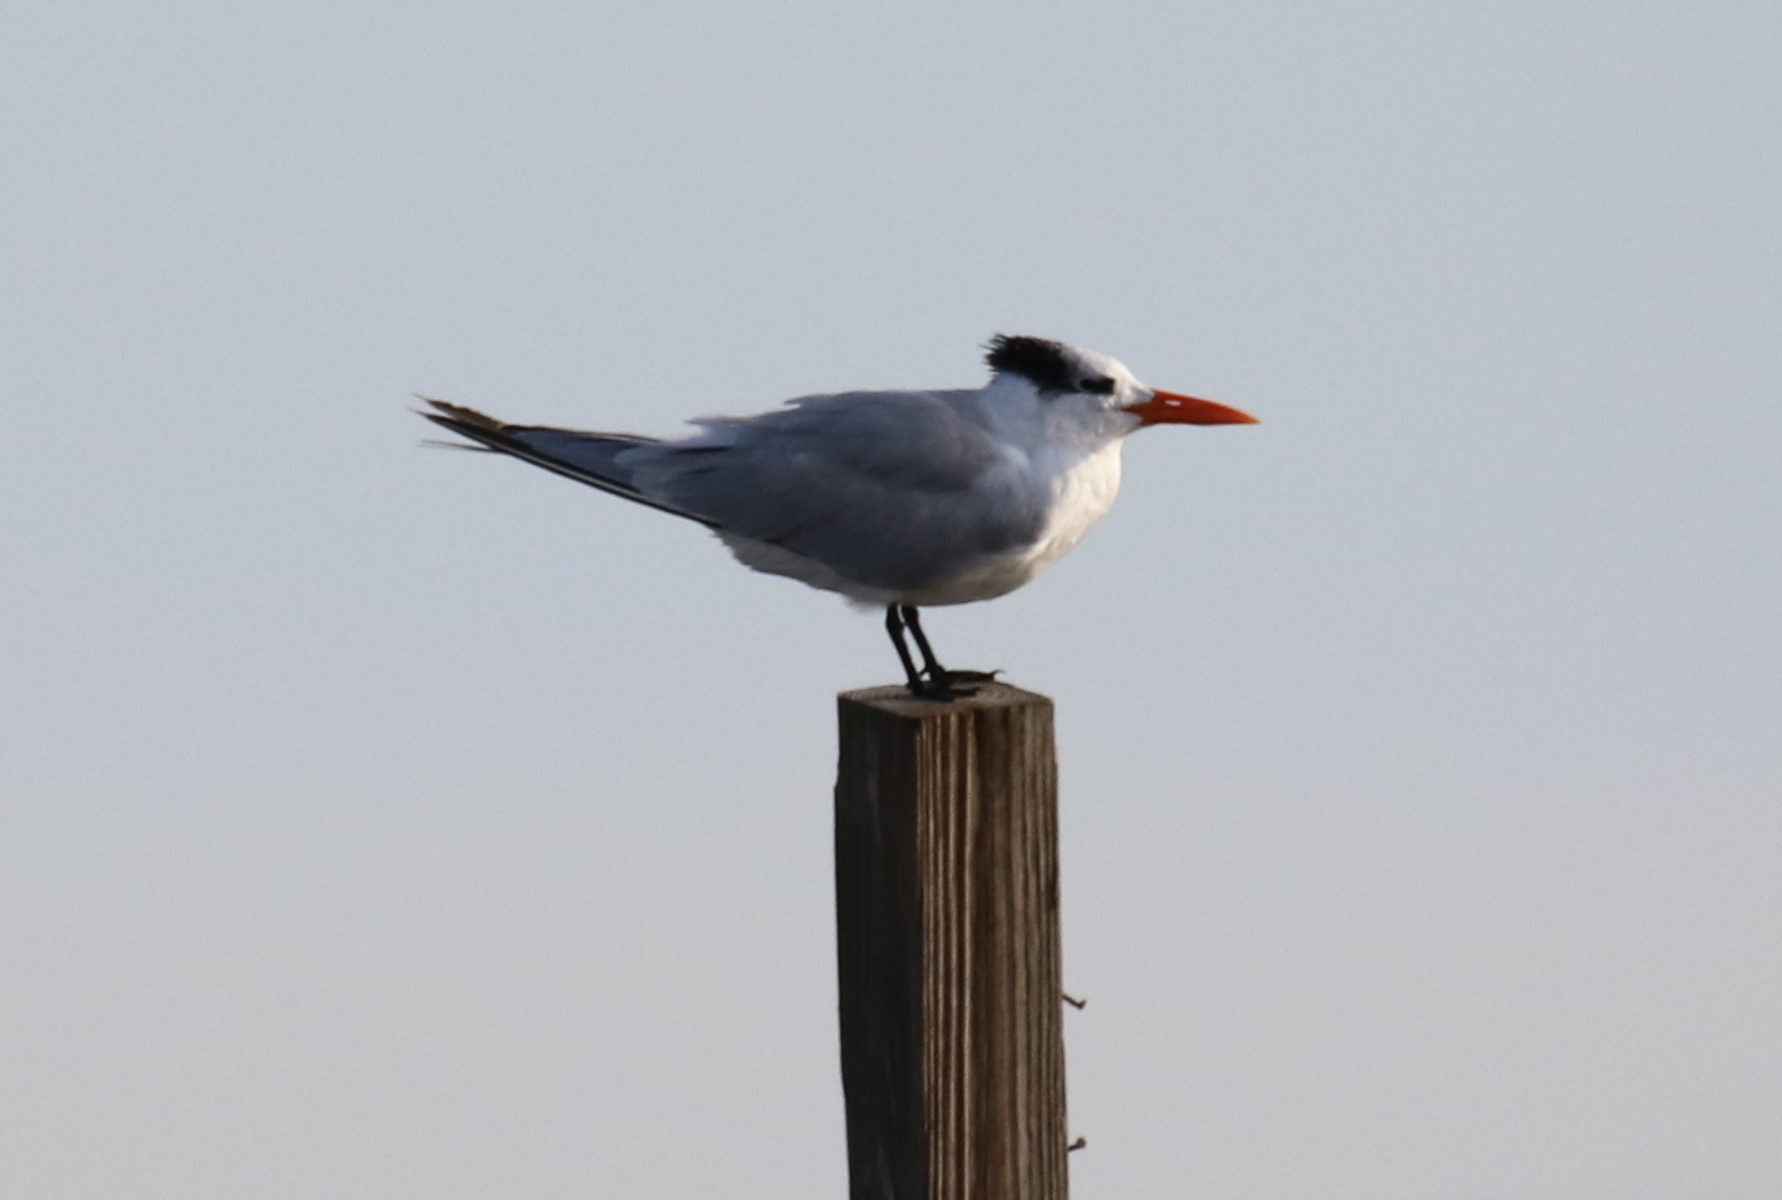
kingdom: Animalia
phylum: Chordata
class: Aves
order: Charadriiformes
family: Laridae
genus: Thalasseus
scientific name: Thalasseus maximus
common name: Royal tern
